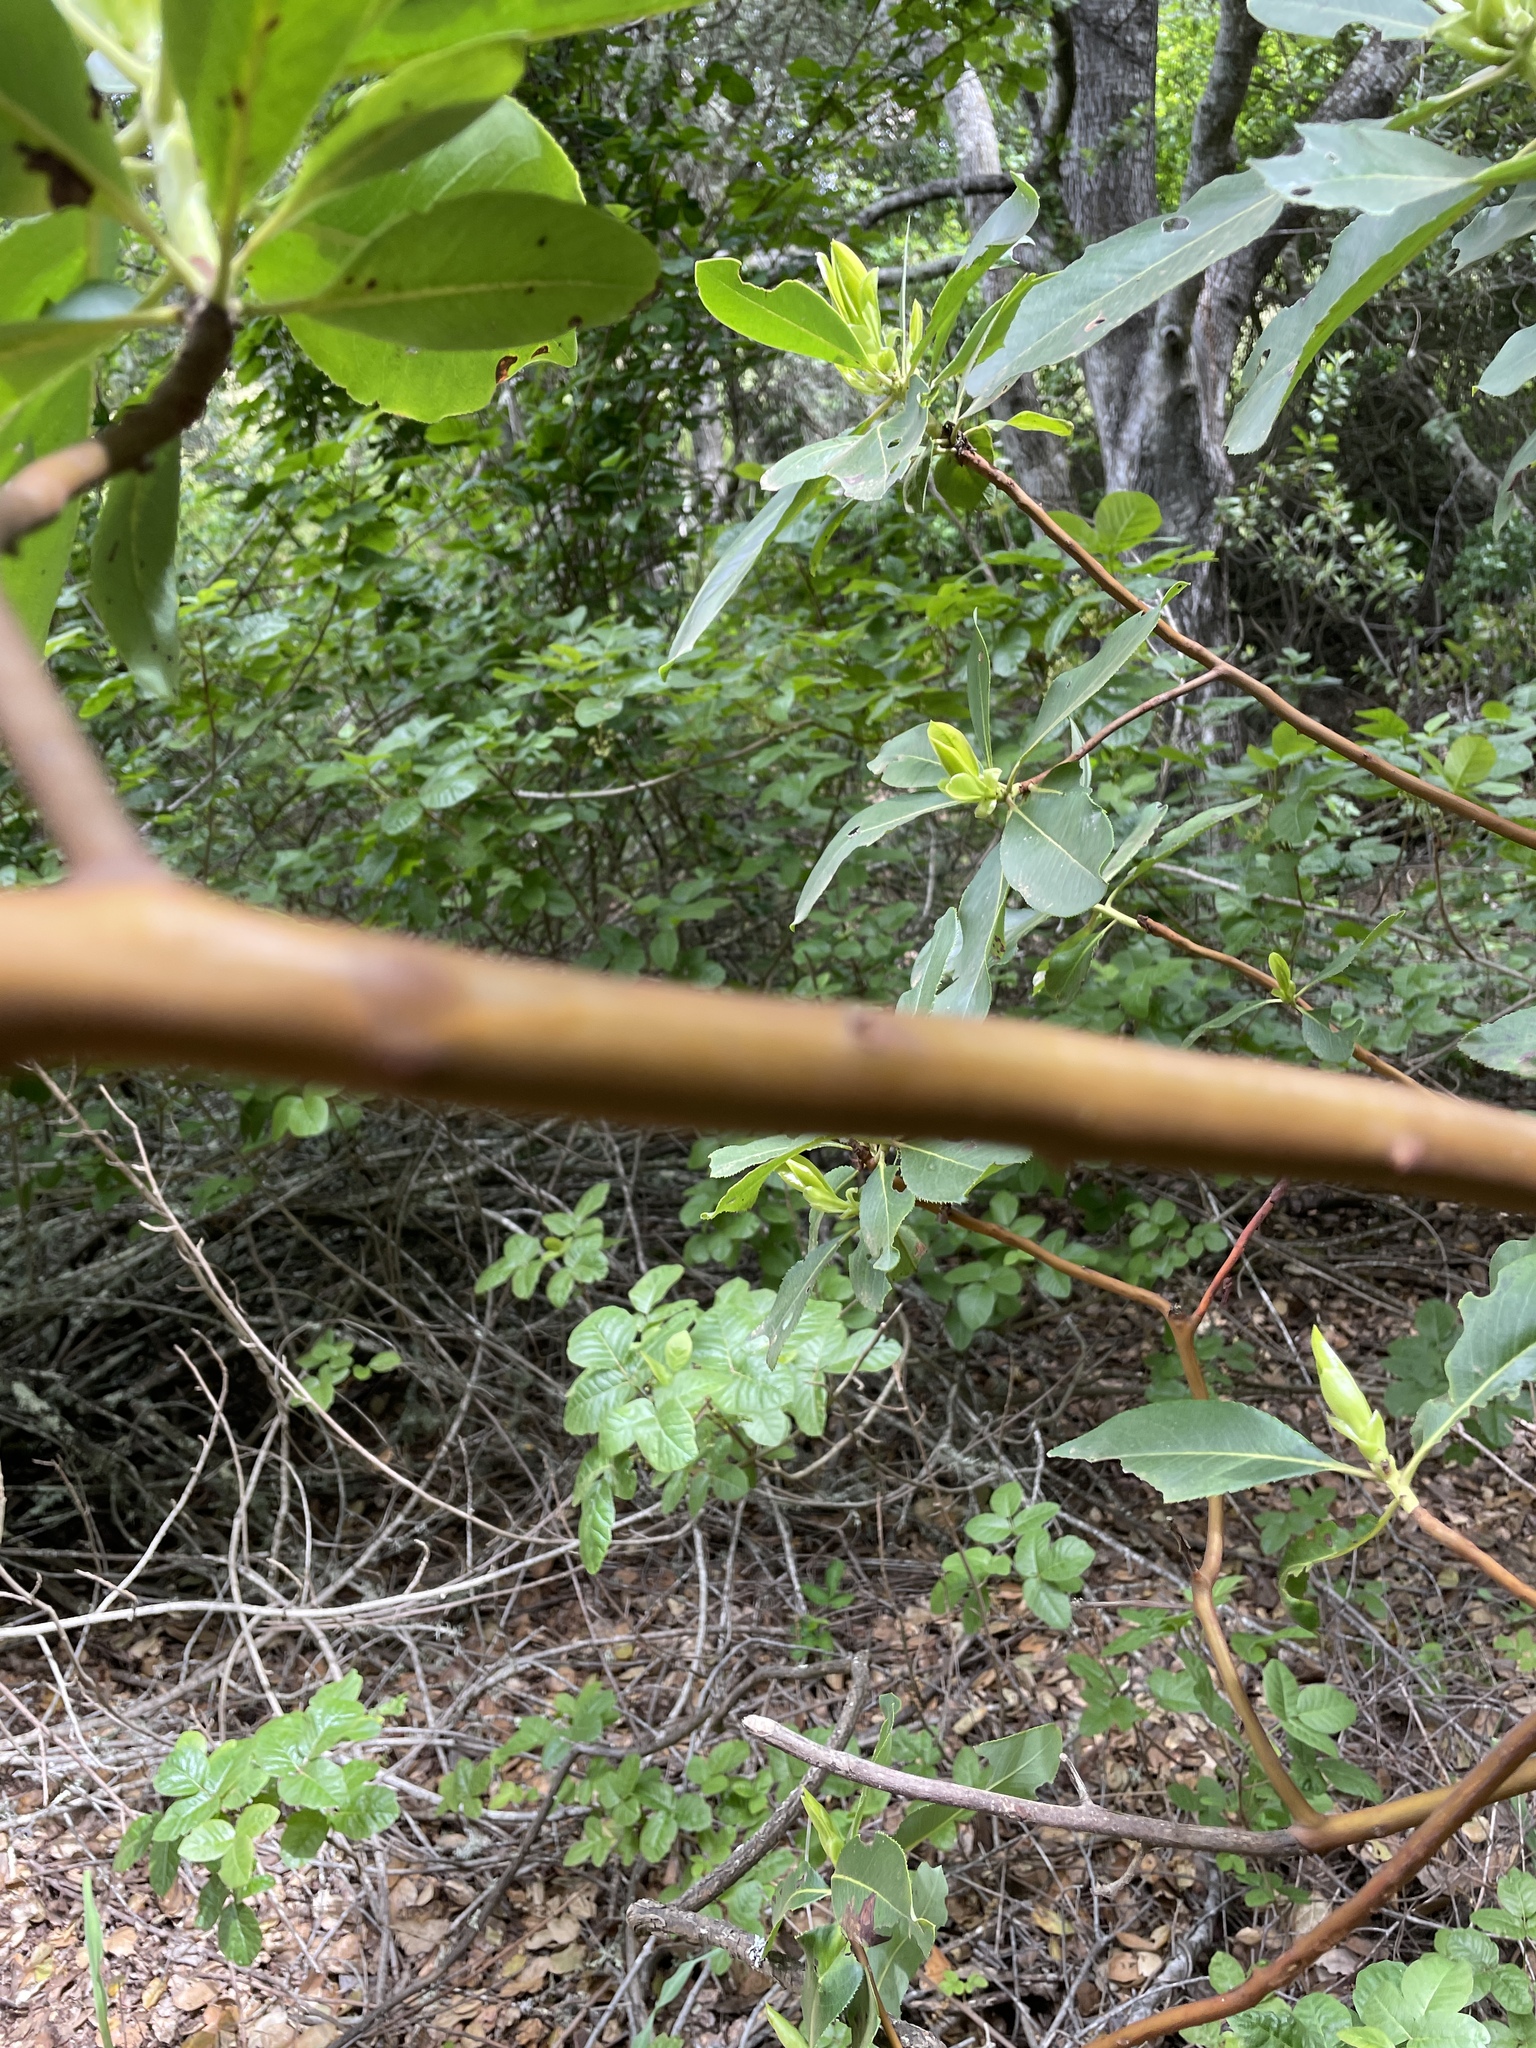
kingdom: Plantae
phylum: Tracheophyta
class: Magnoliopsida
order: Ericales
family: Ericaceae
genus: Arbutus
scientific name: Arbutus menziesii
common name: Pacific madrone
